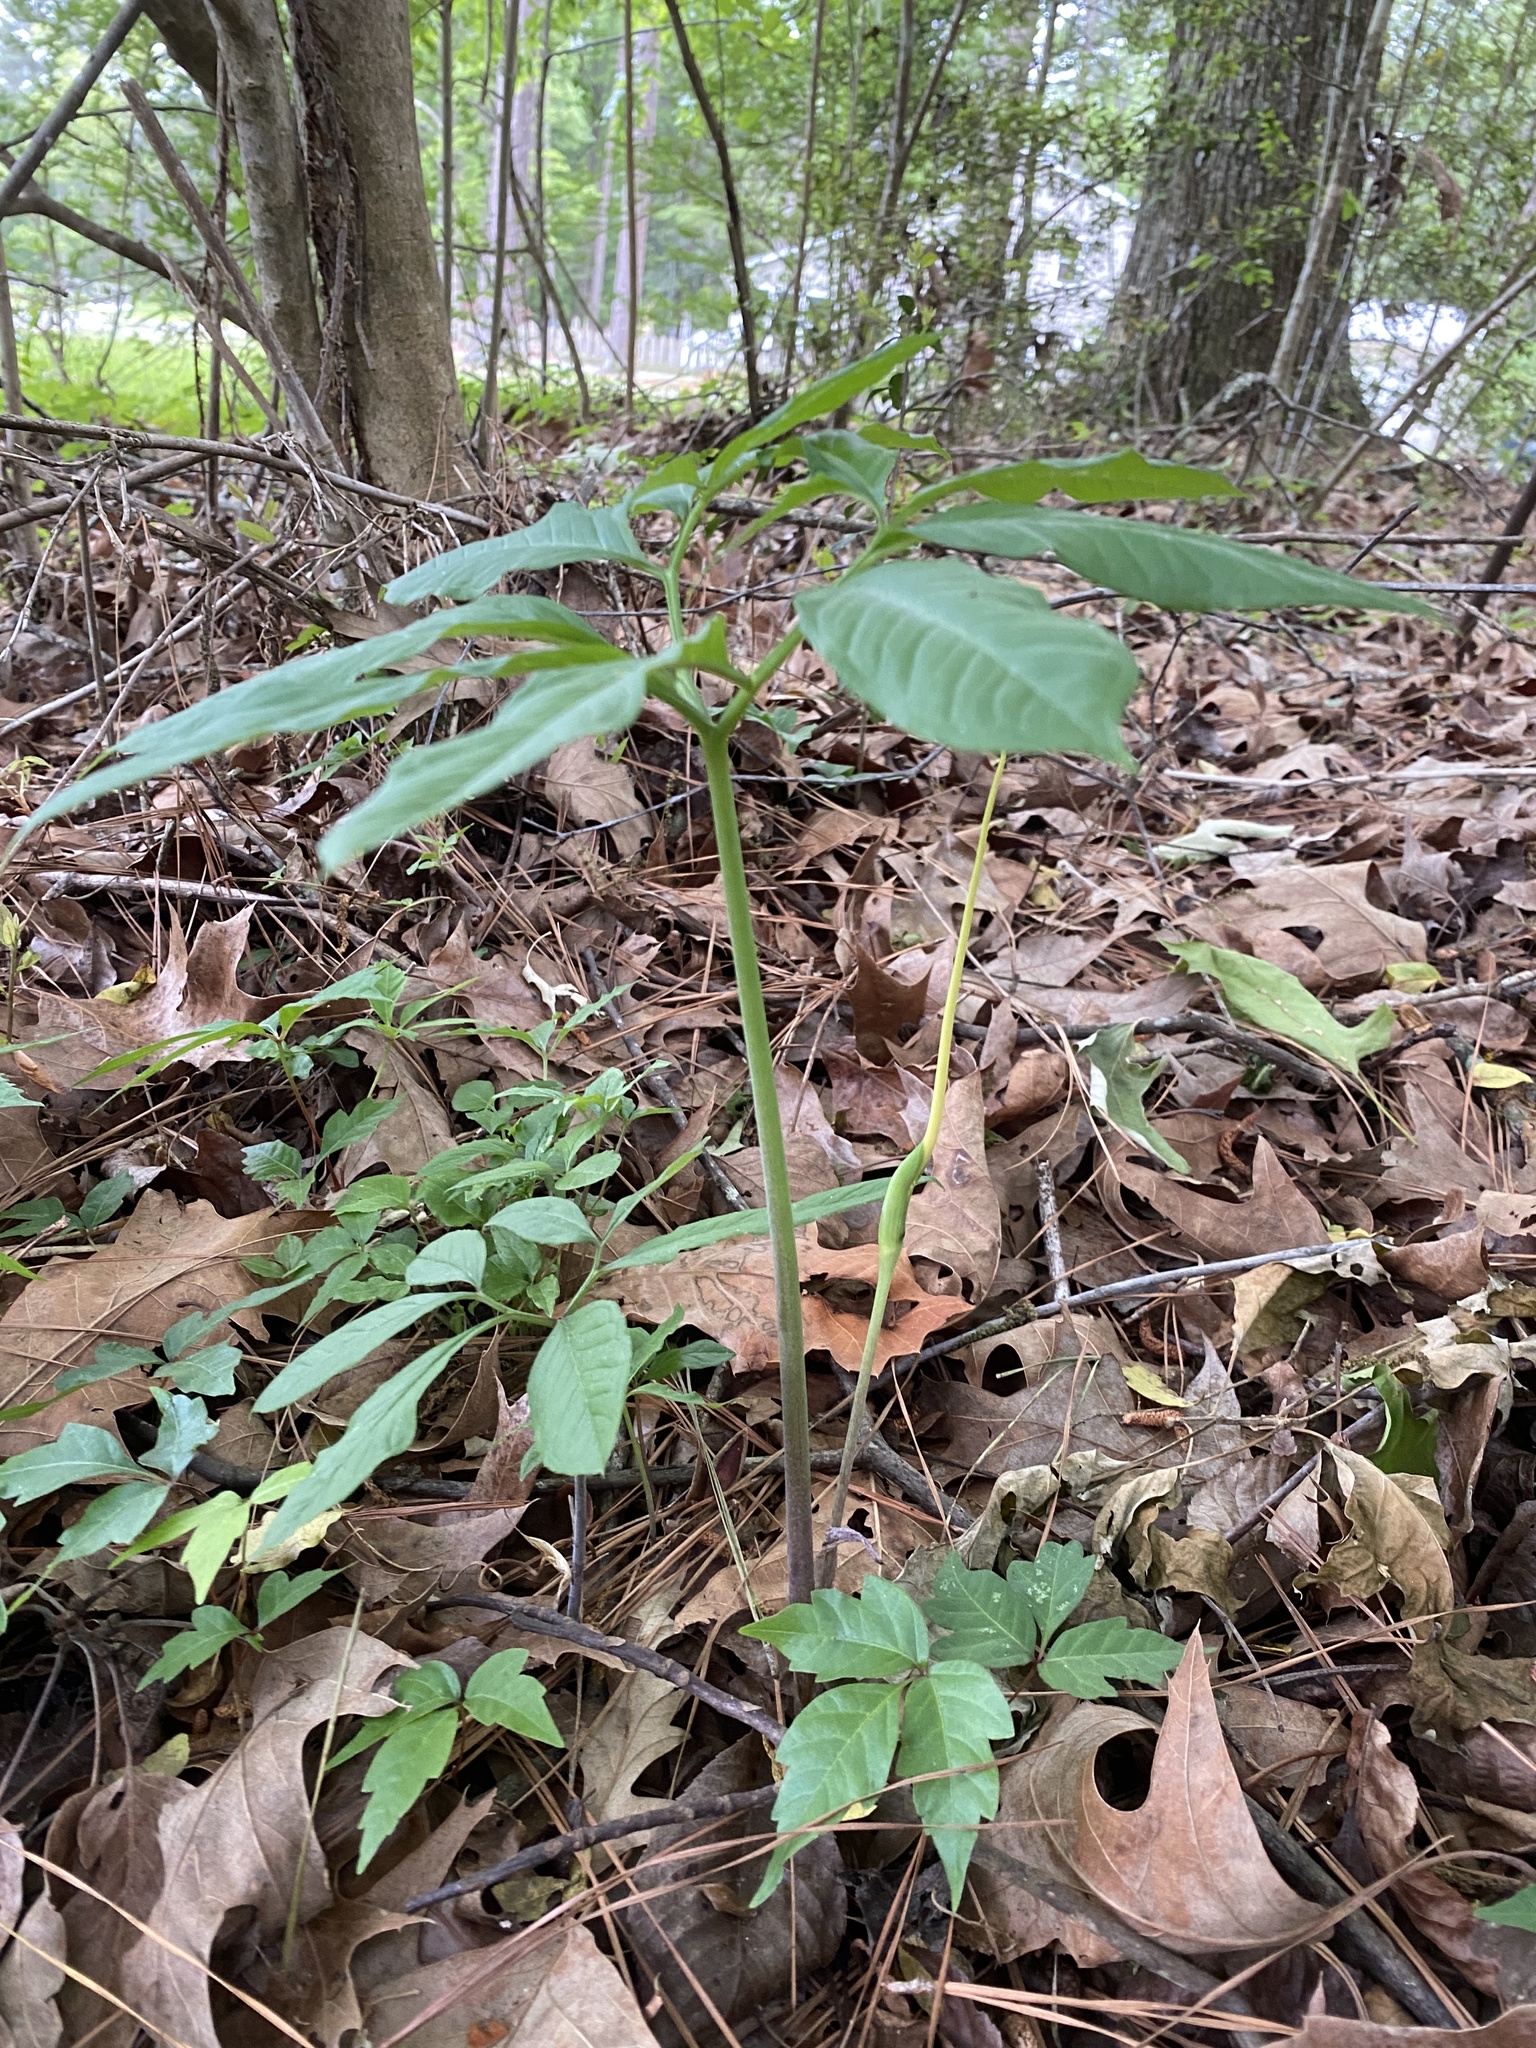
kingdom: Plantae
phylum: Tracheophyta
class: Liliopsida
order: Alismatales
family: Araceae
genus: Arisaema
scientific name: Arisaema dracontium
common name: Dragon-arum
